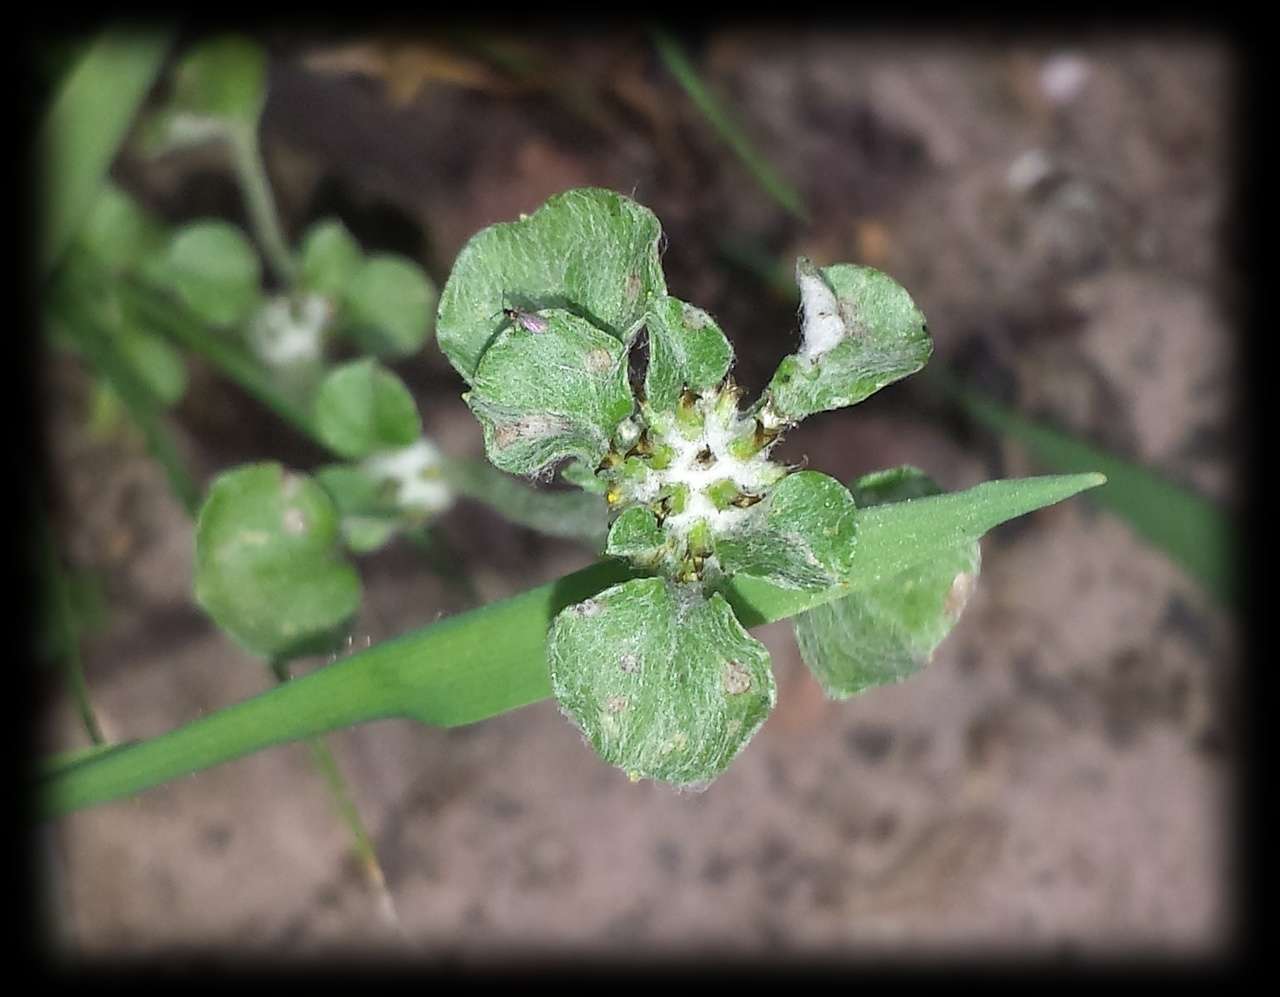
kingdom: Plantae
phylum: Tracheophyta
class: Magnoliopsida
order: Asterales
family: Asteraceae
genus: Stuartina
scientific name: Stuartina muelleri
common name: Spoon-leaved cudweed
